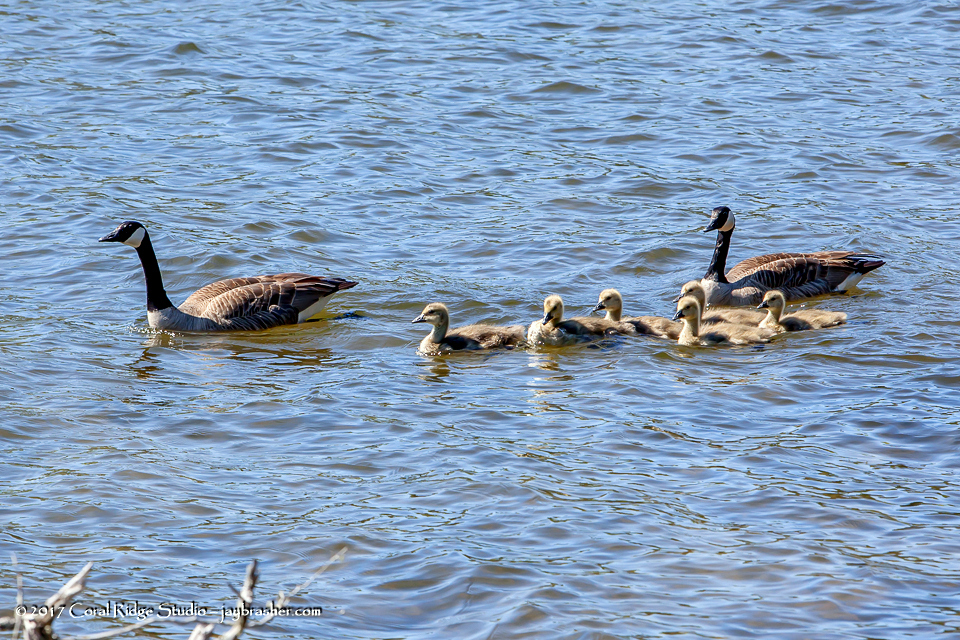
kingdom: Animalia
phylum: Chordata
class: Aves
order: Anseriformes
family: Anatidae
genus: Branta
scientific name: Branta canadensis
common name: Canada goose
